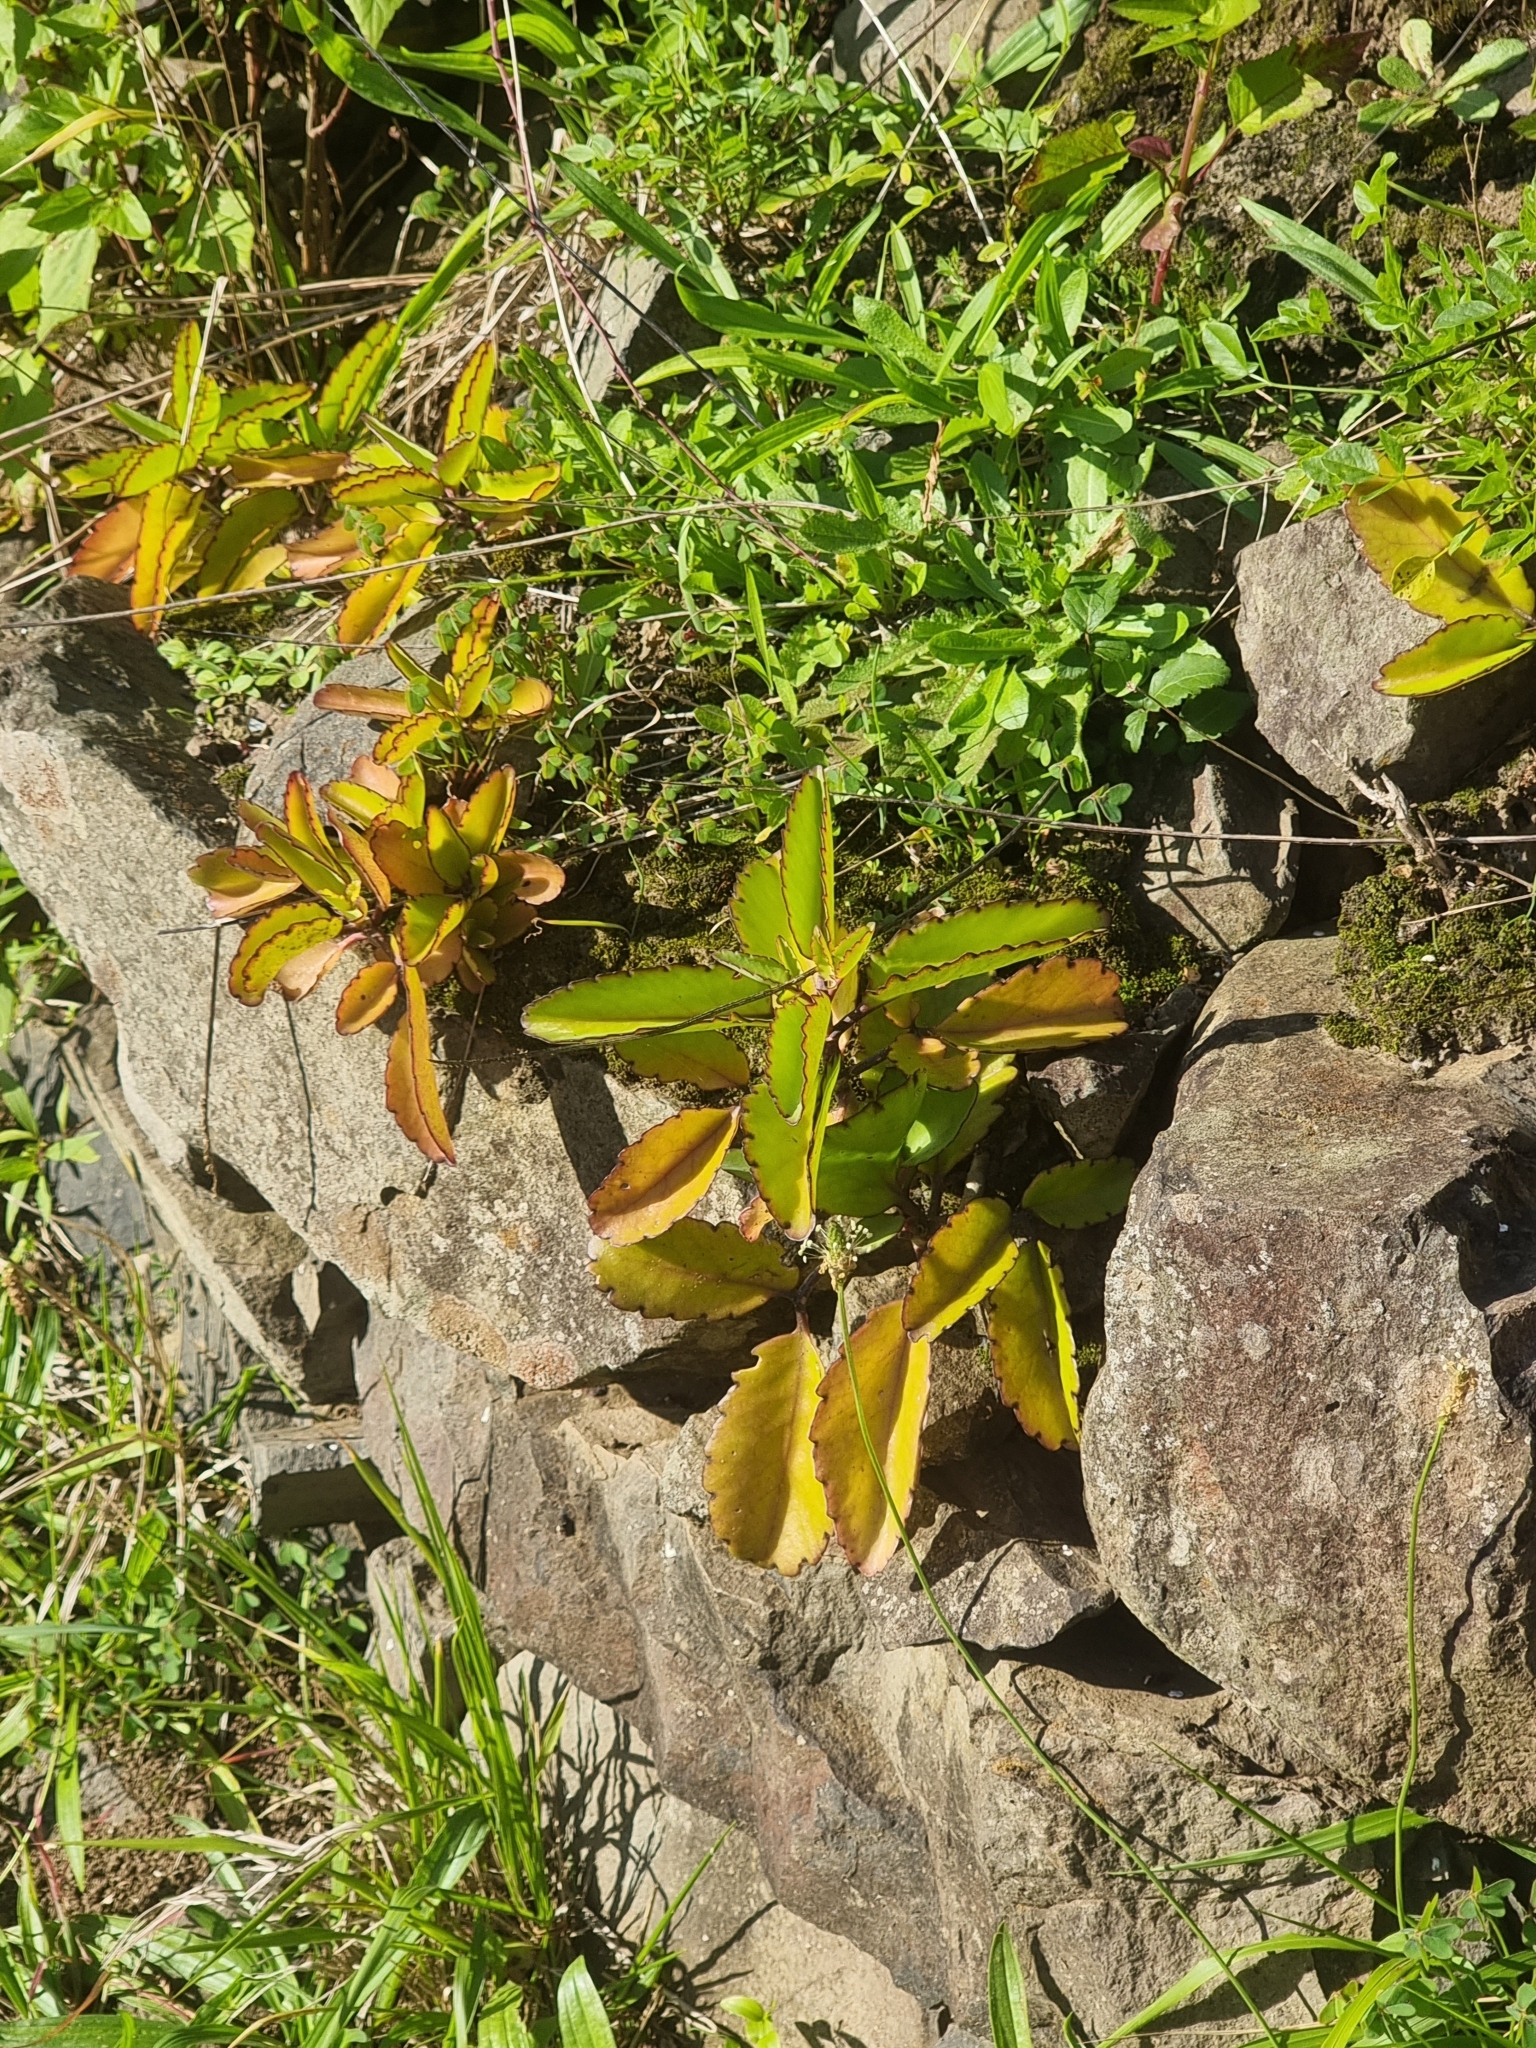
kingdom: Plantae
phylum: Tracheophyta
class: Magnoliopsida
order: Saxifragales
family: Crassulaceae
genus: Kalanchoe
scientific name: Kalanchoe pinnata
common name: Cathedral bells
